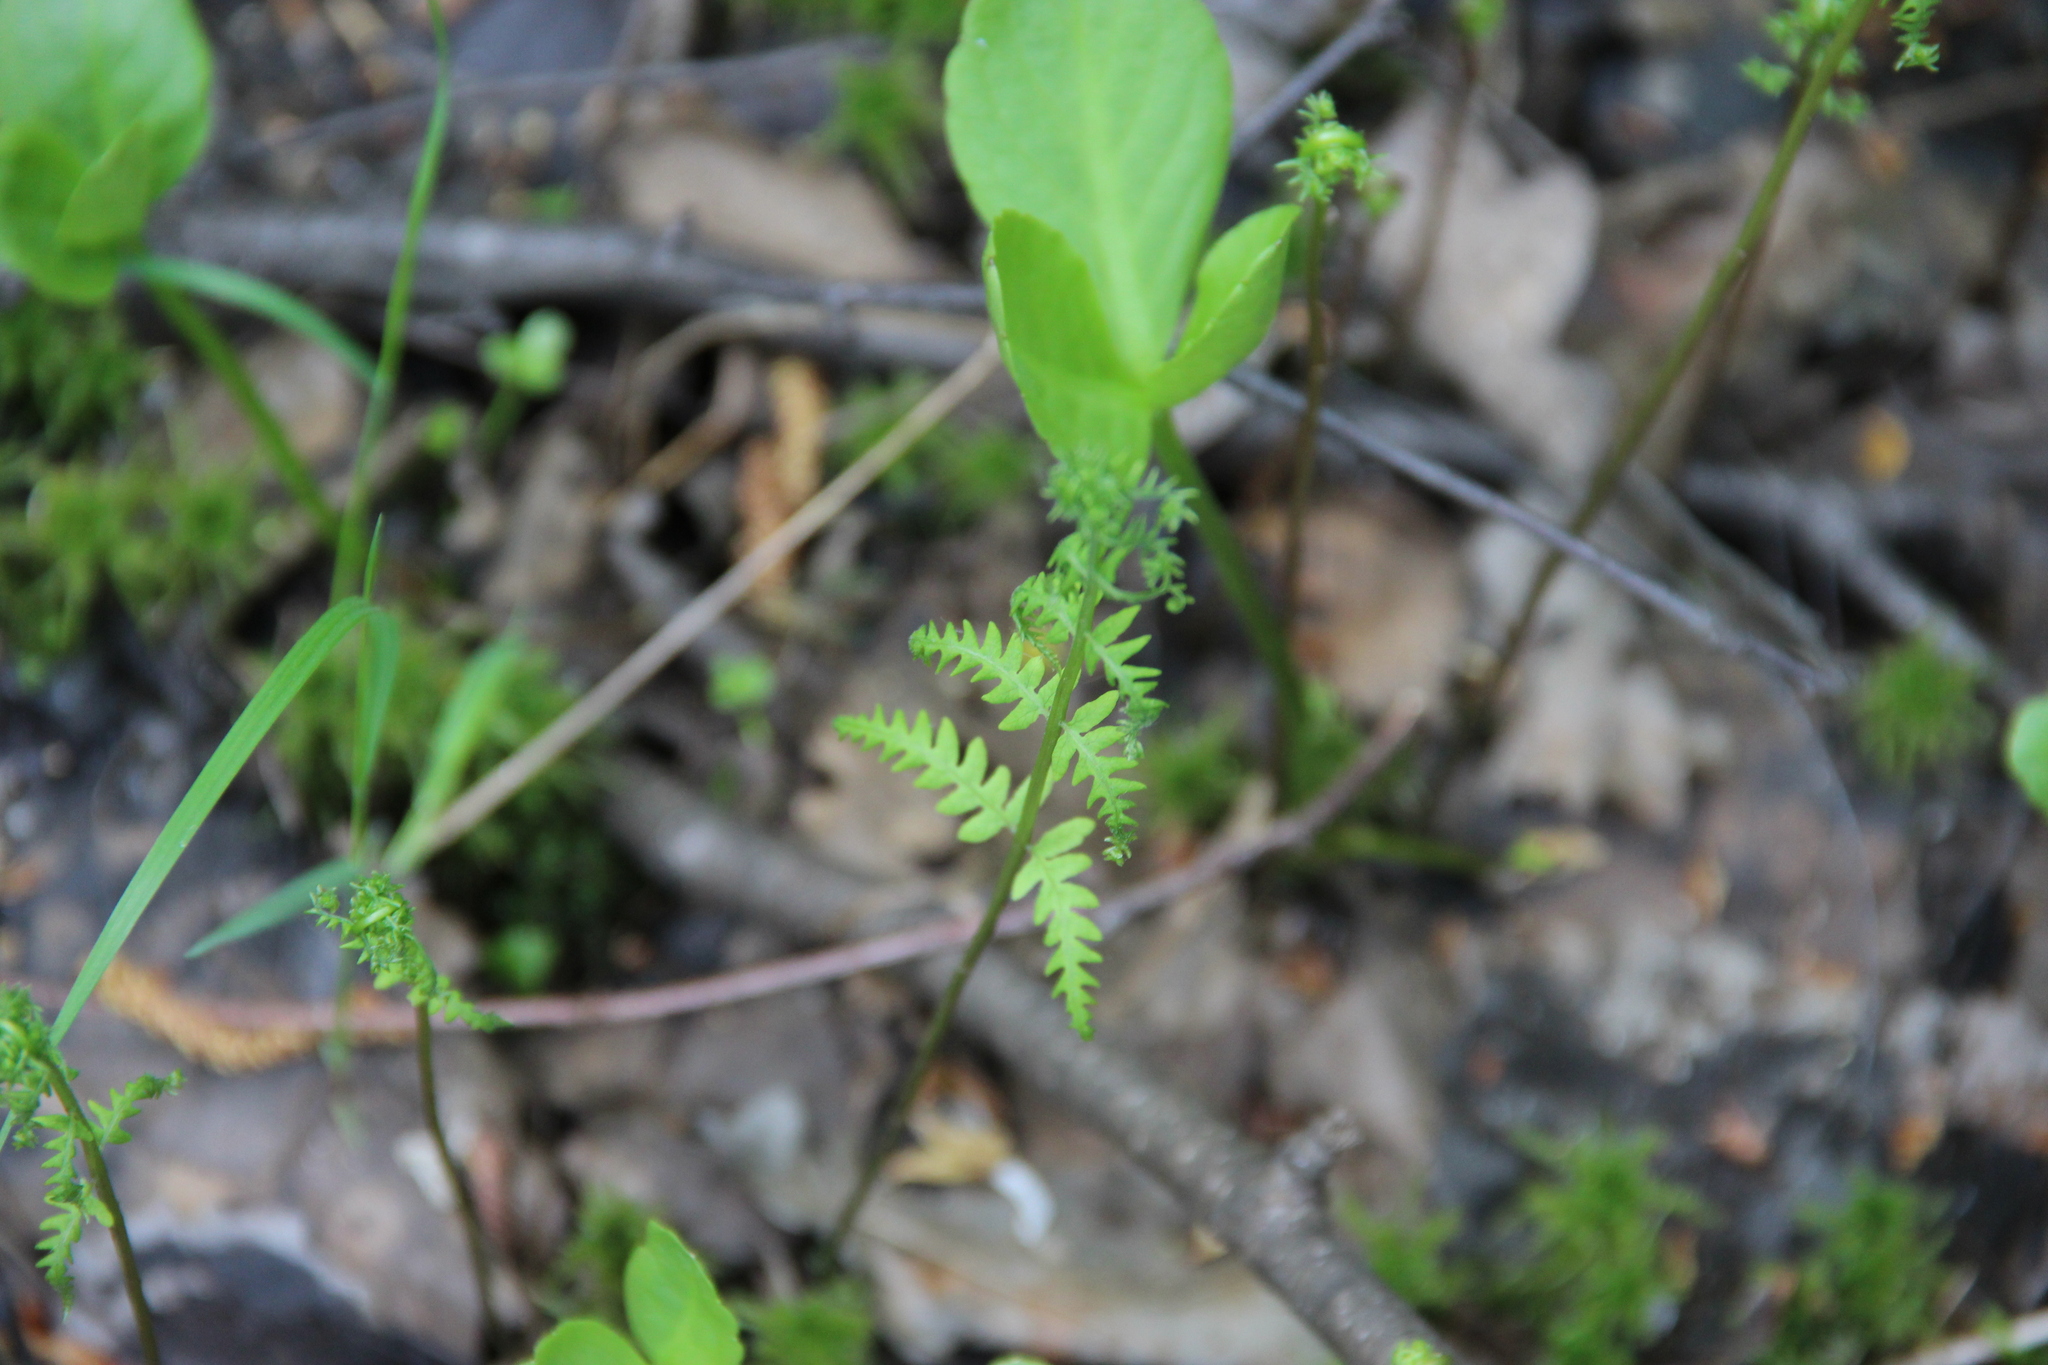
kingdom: Plantae
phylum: Tracheophyta
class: Polypodiopsida
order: Polypodiales
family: Thelypteridaceae
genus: Thelypteris
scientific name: Thelypteris palustris
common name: Marsh fern
